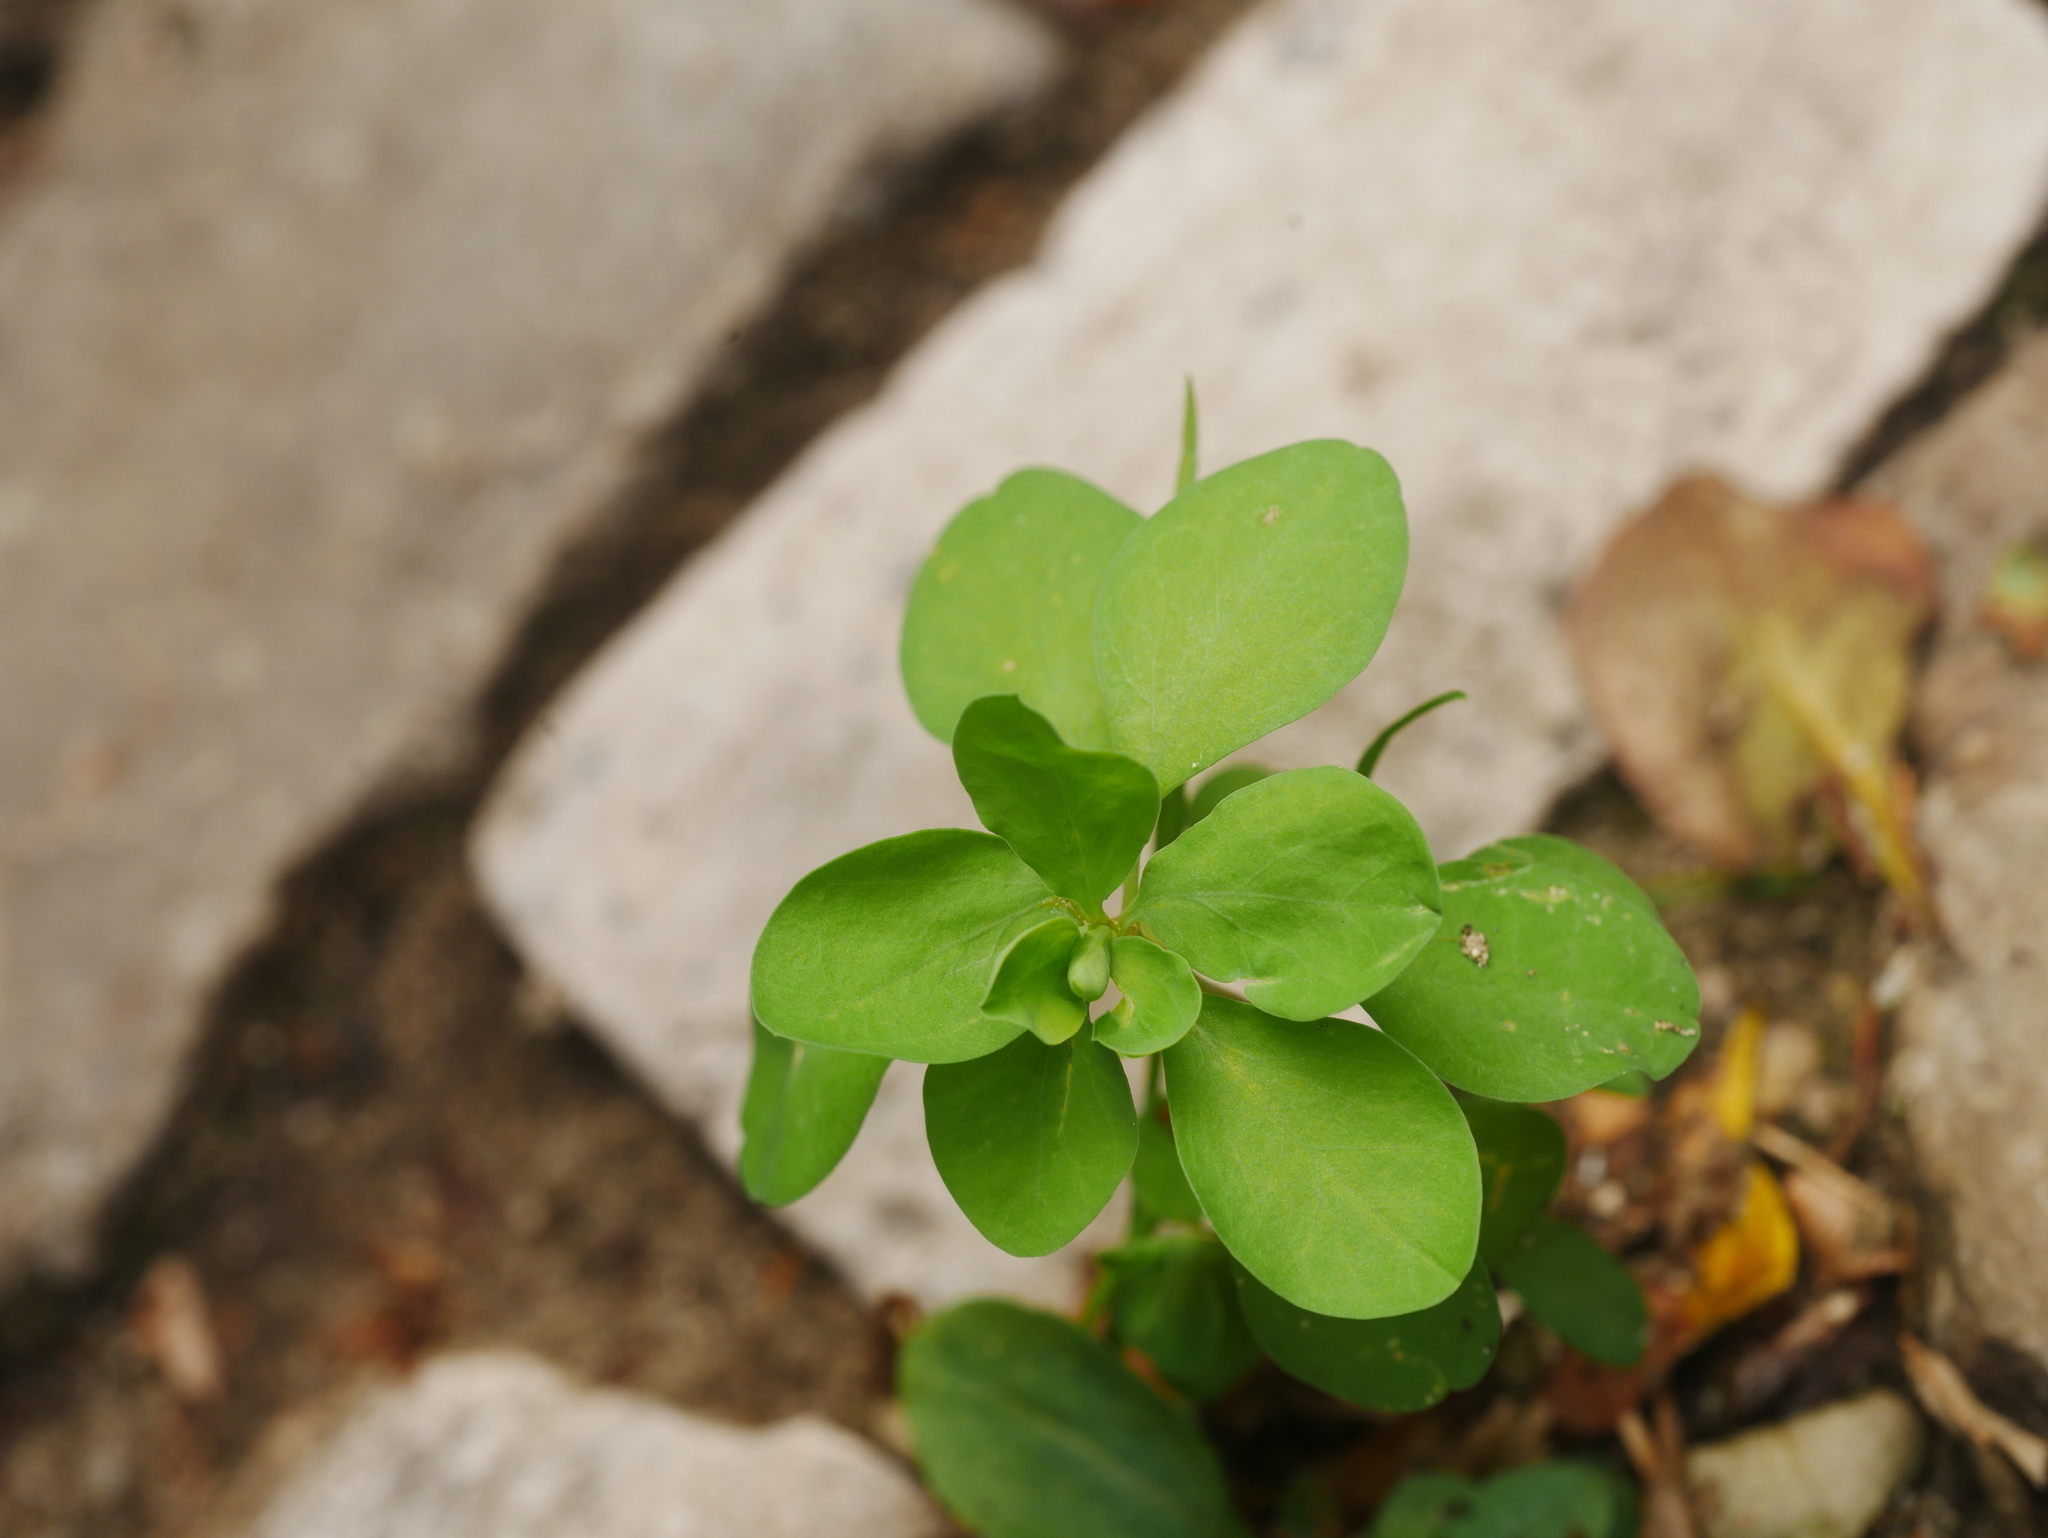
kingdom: Plantae
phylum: Tracheophyta
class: Magnoliopsida
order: Malpighiales
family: Euphorbiaceae
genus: Euphorbia
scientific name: Euphorbia peplus
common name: Petty spurge
